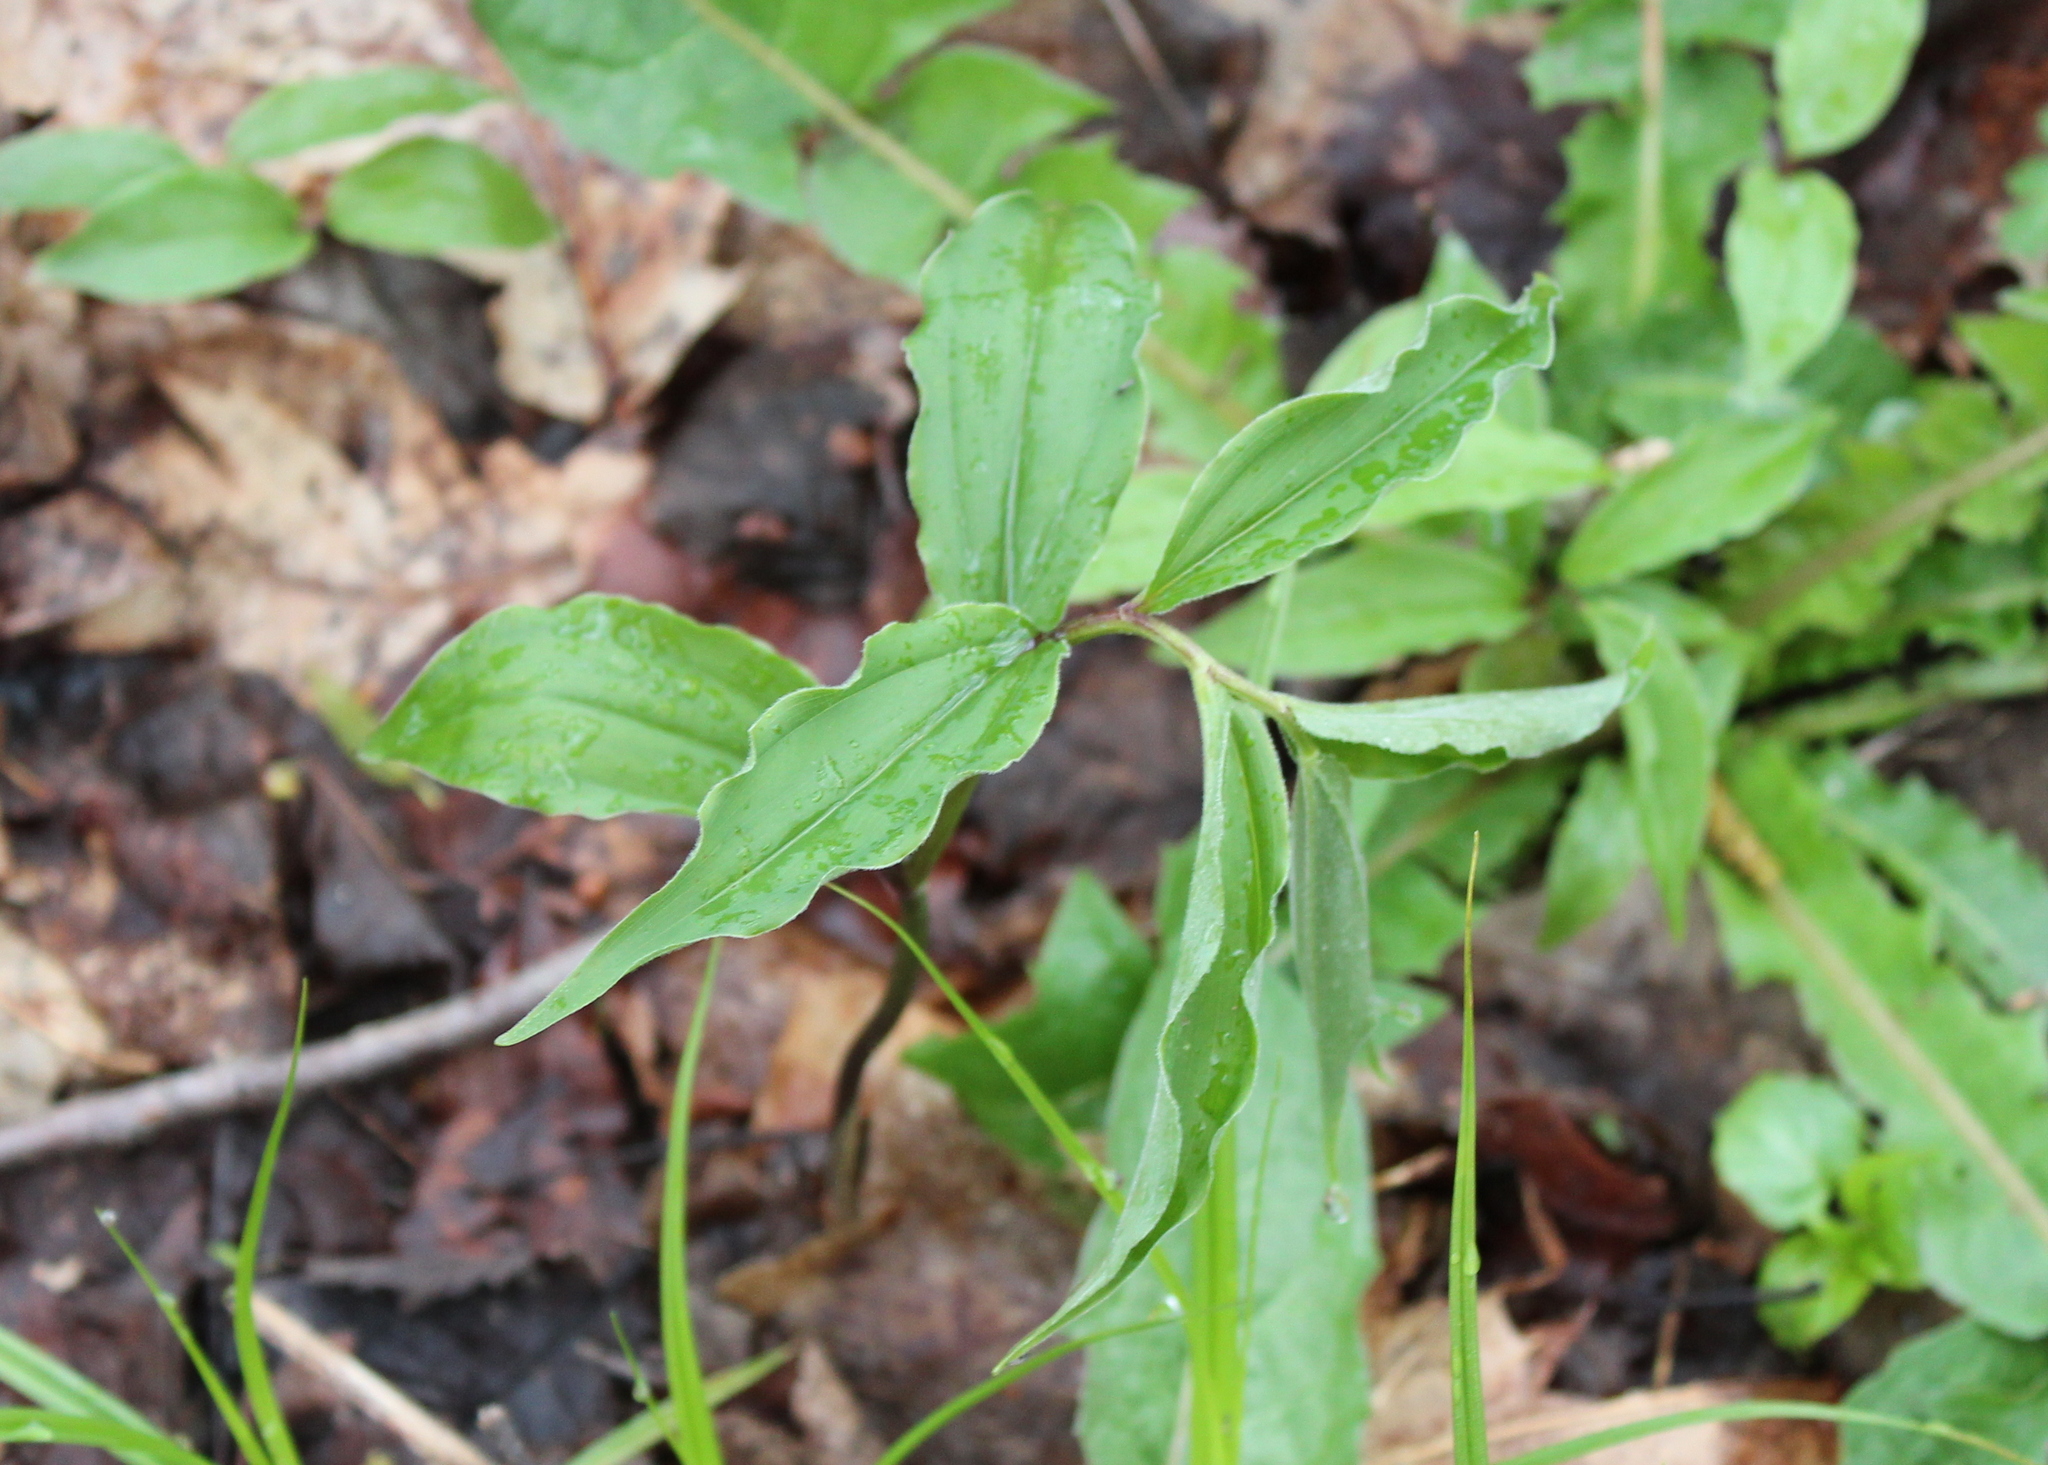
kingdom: Plantae
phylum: Tracheophyta
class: Liliopsida
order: Asparagales
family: Asparagaceae
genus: Maianthemum
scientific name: Maianthemum racemosum
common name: False spikenard
